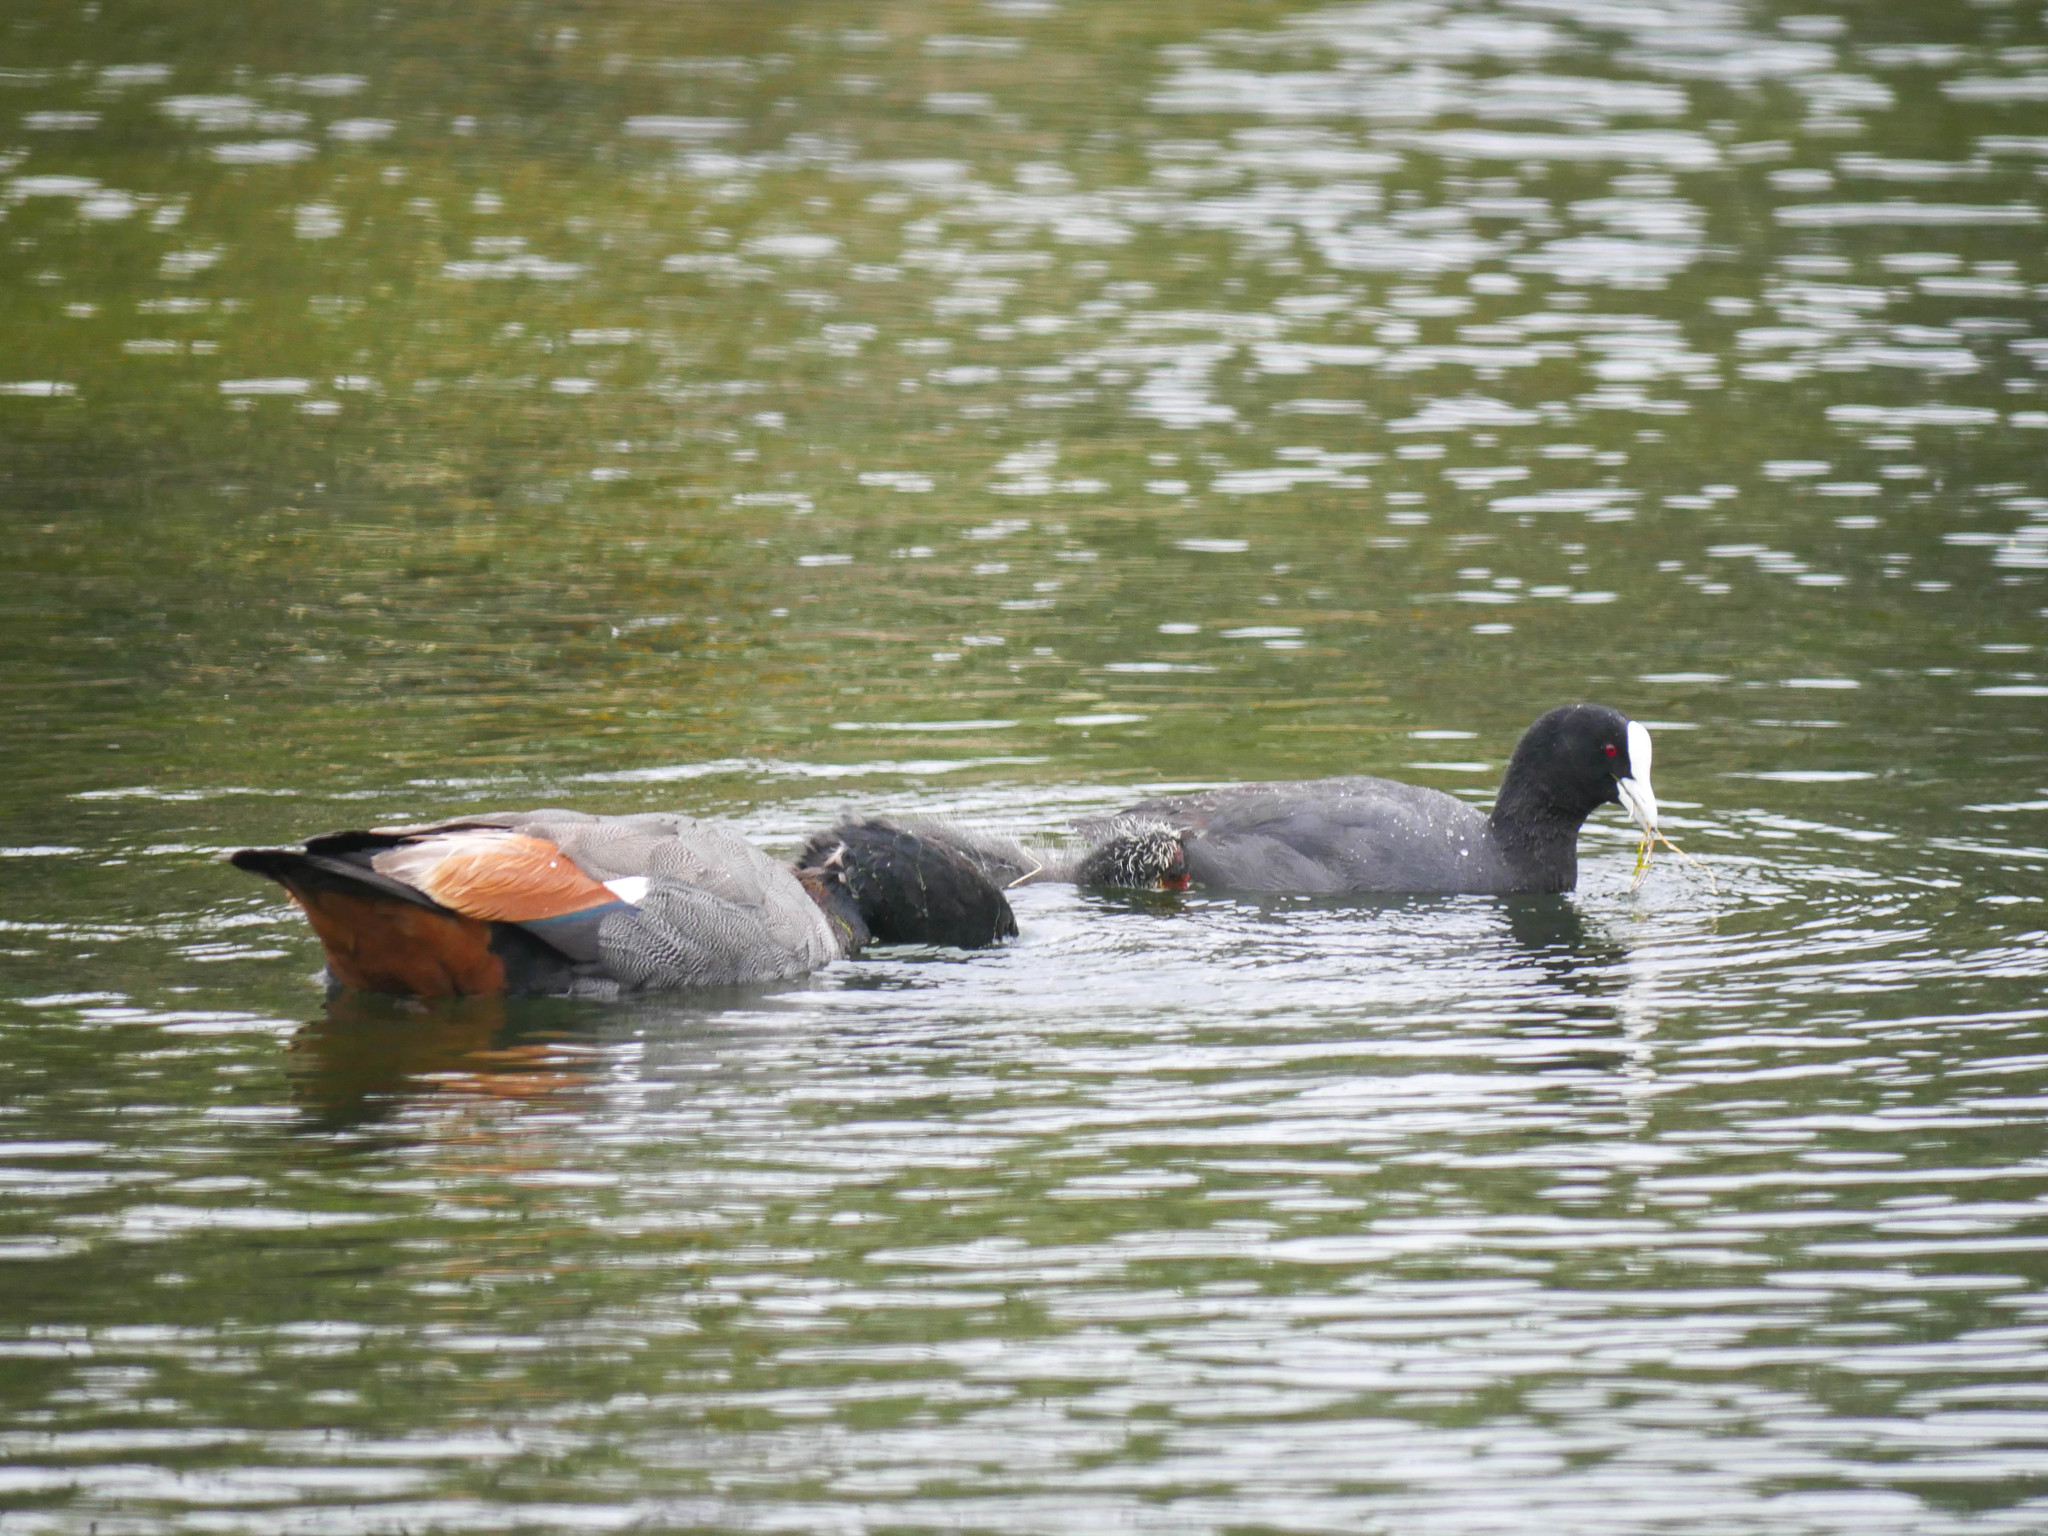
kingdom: Animalia
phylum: Chordata
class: Aves
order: Anseriformes
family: Anatidae
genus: Tadorna
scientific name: Tadorna variegata
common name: Paradise shelduck
